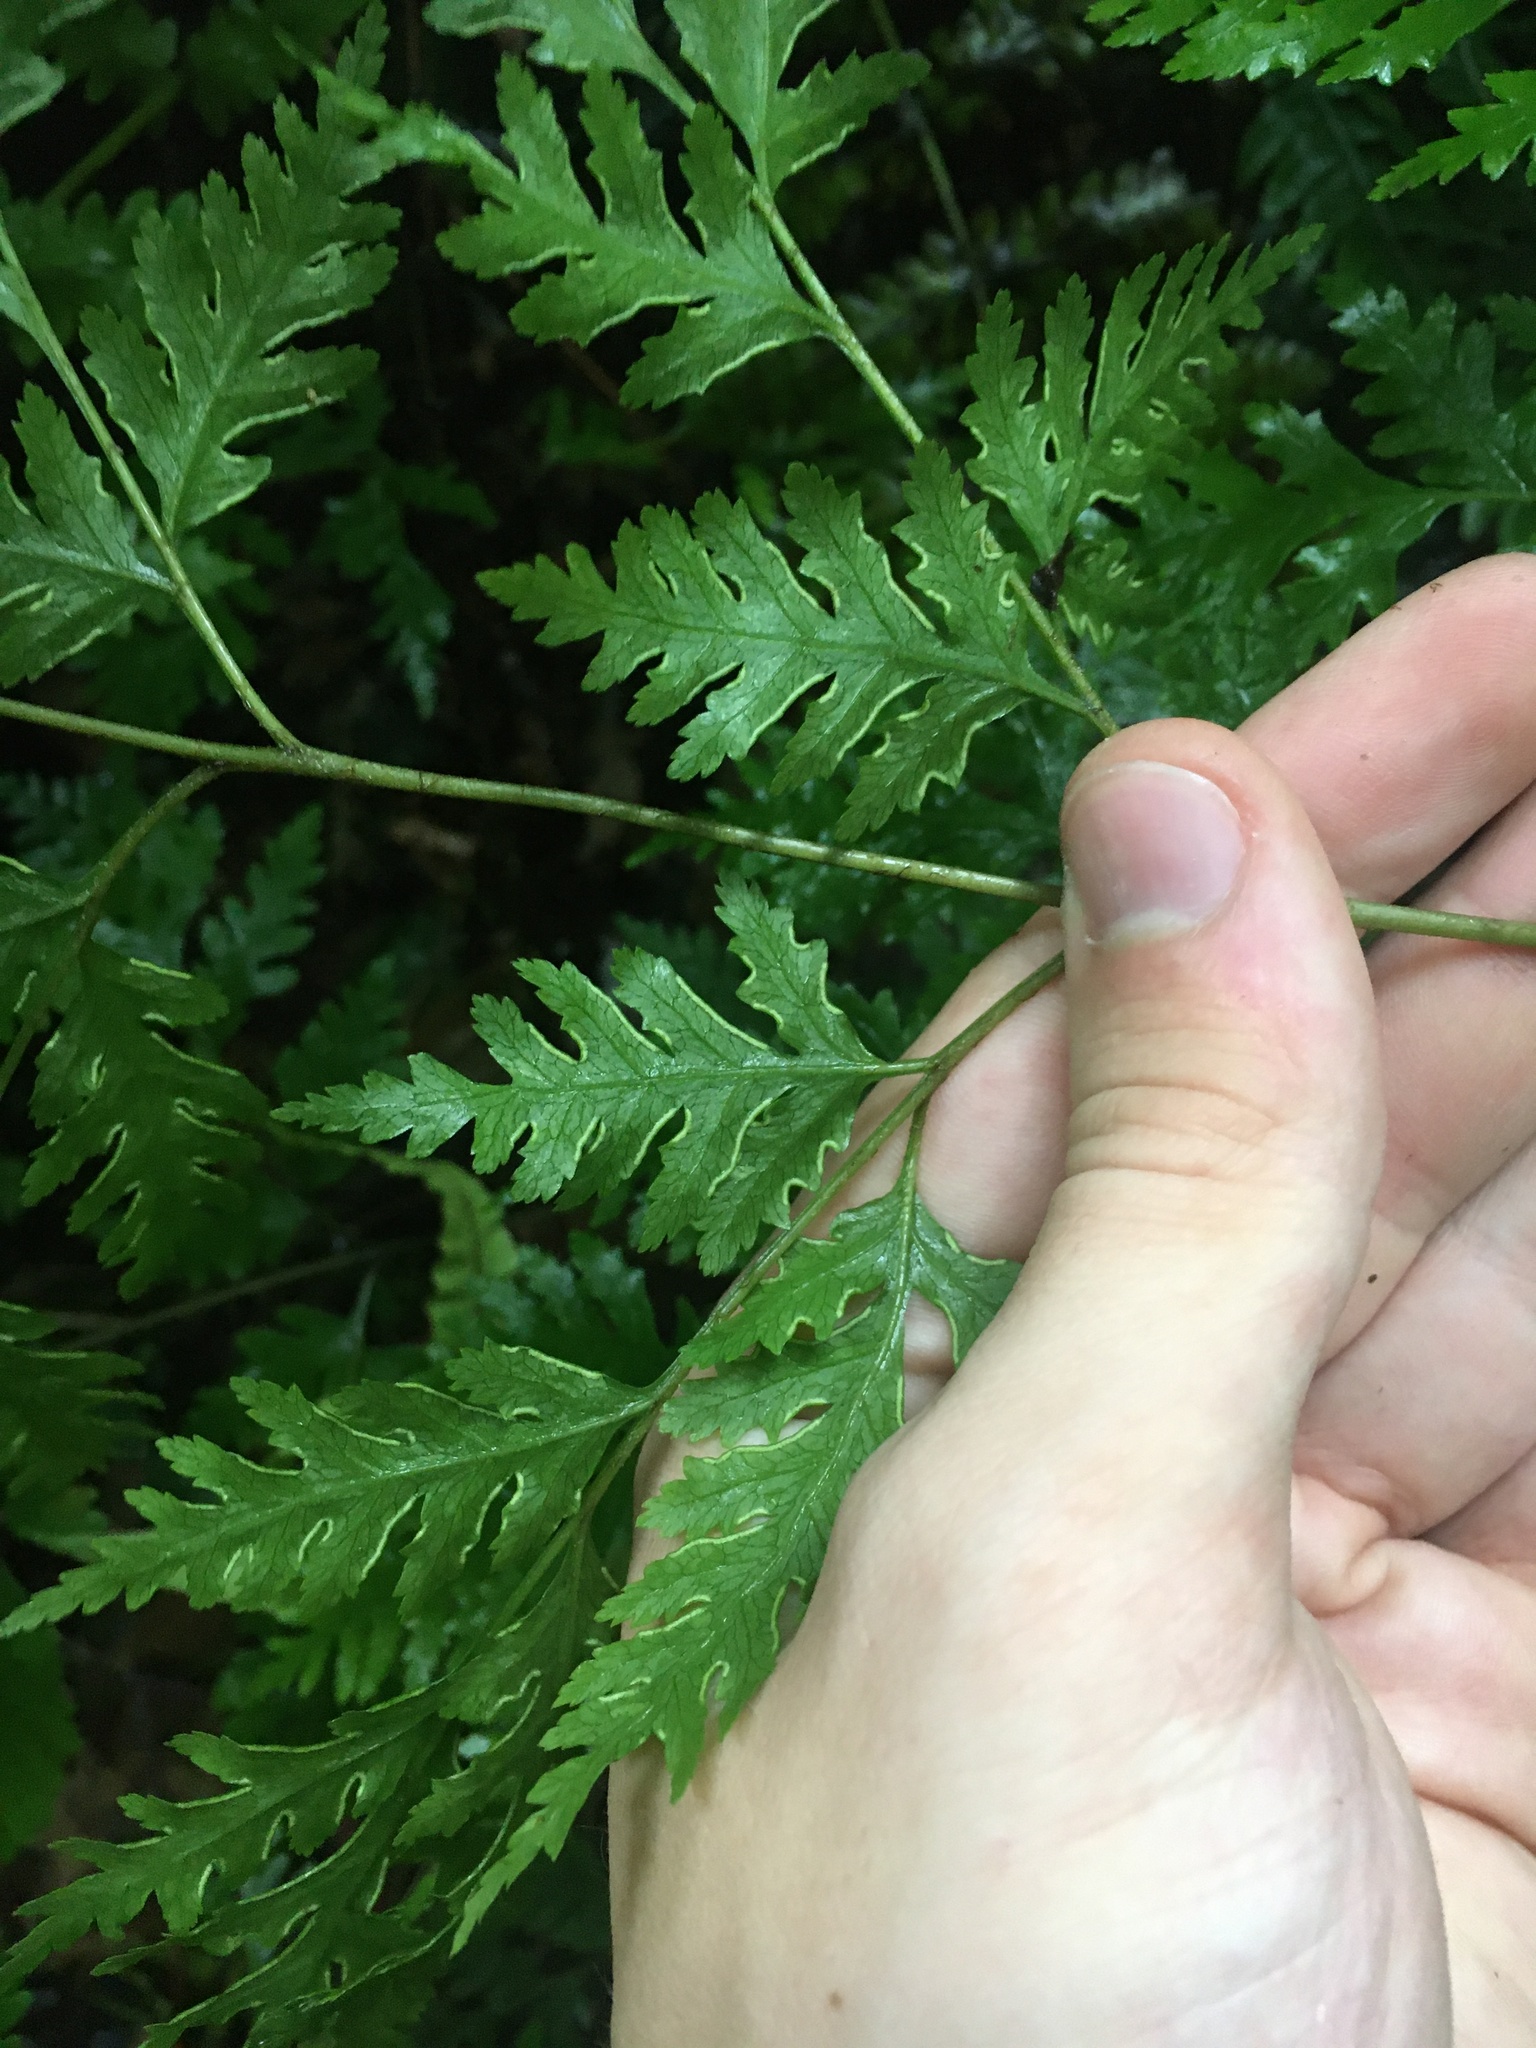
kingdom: Plantae
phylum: Tracheophyta
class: Polypodiopsida
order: Polypodiales
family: Pteridaceae
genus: Pteris
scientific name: Pteris macilenta
